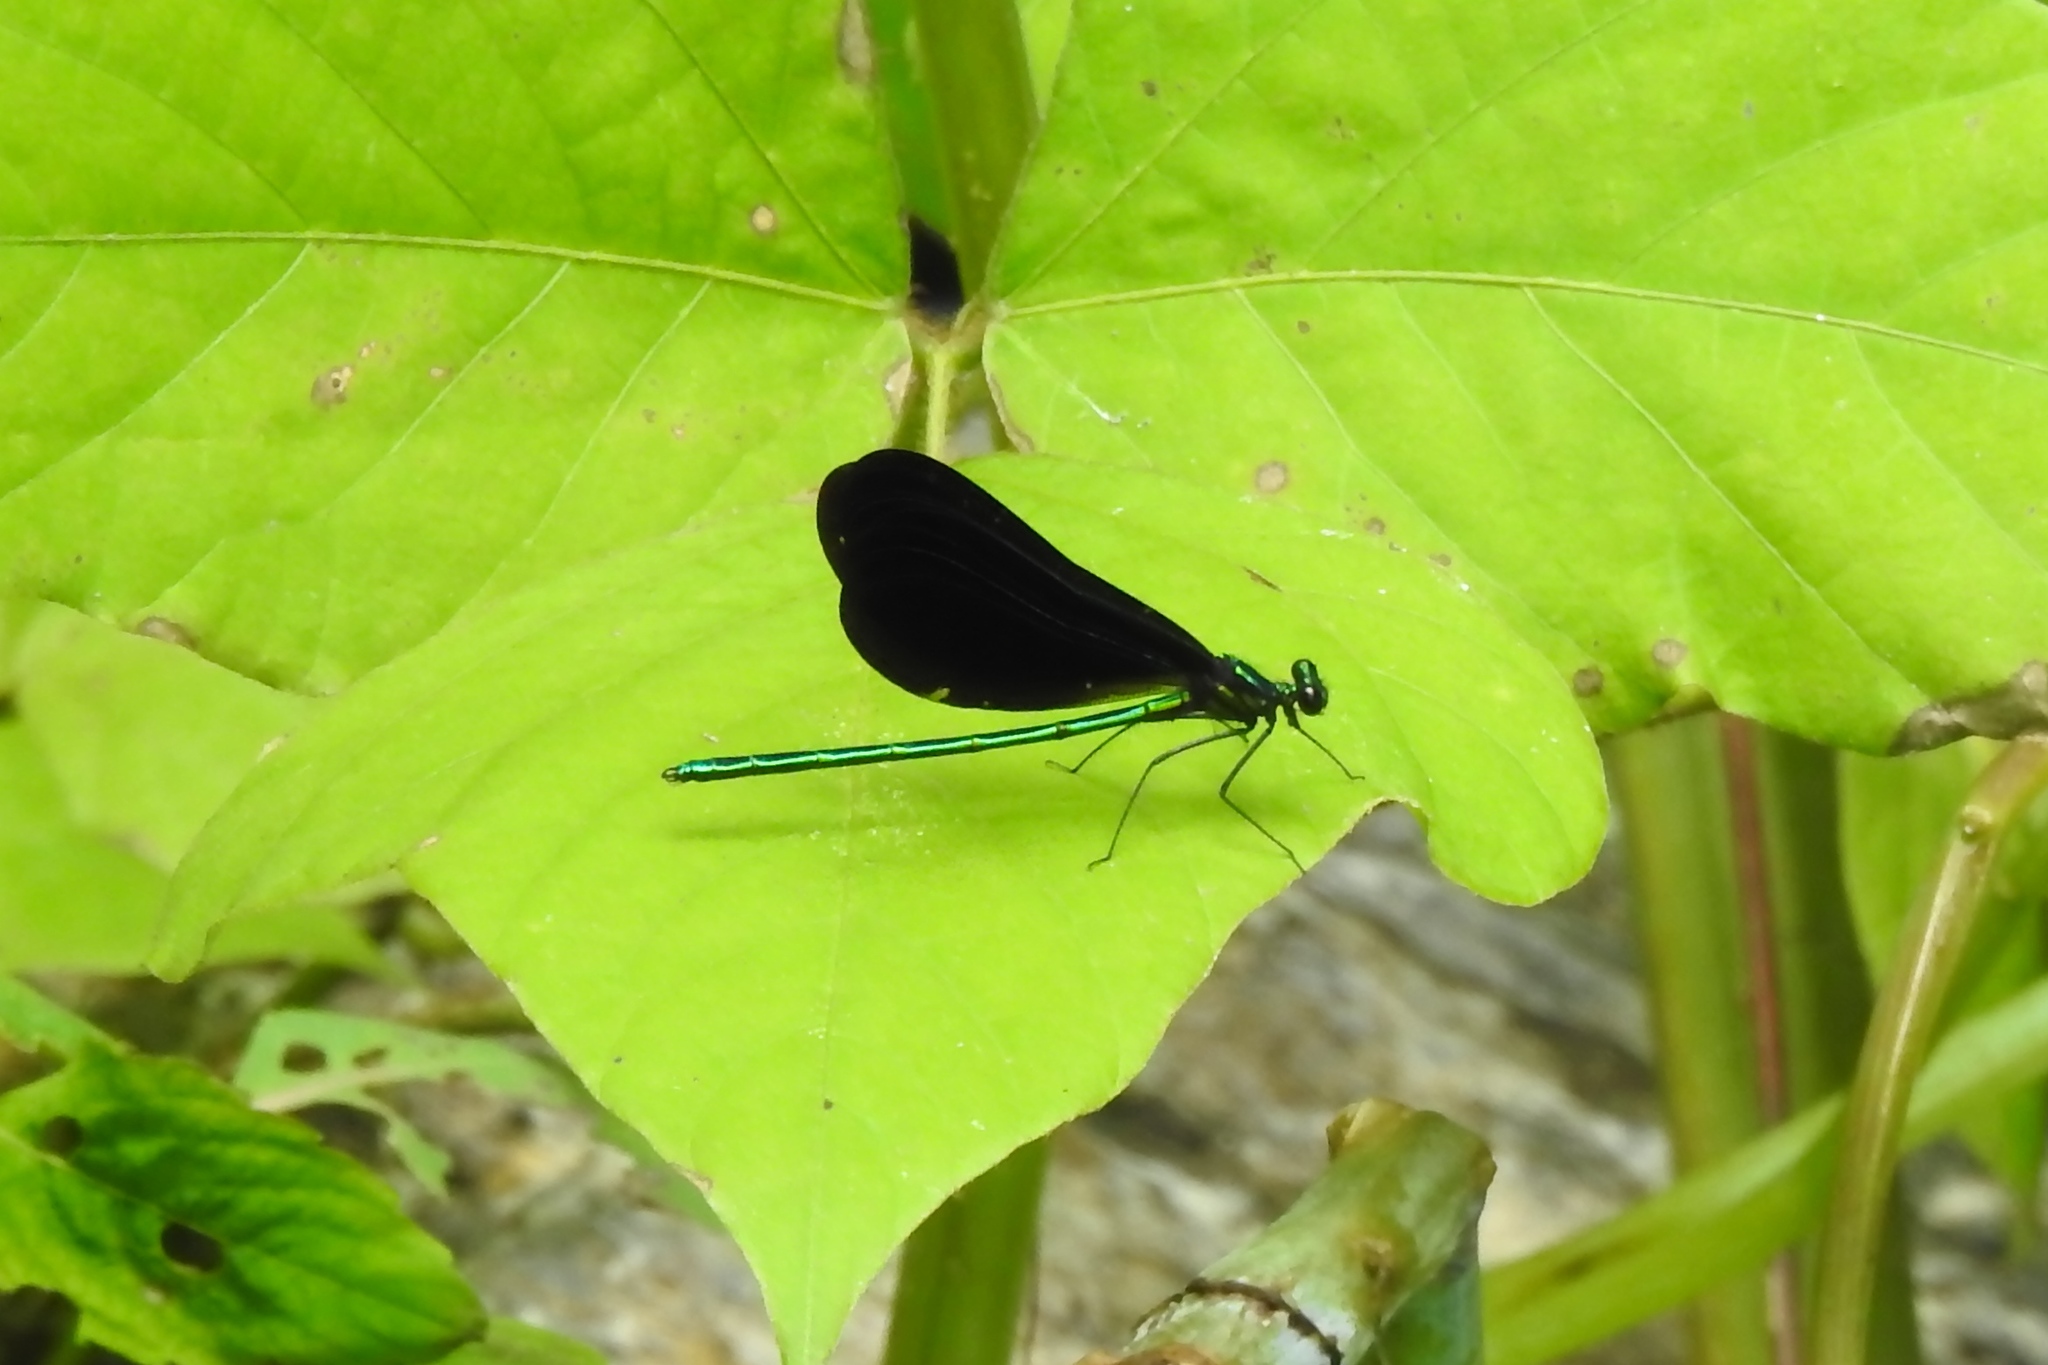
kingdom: Animalia
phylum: Arthropoda
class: Insecta
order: Odonata
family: Calopterygidae
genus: Calopteryx
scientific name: Calopteryx maculata
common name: Ebony jewelwing
